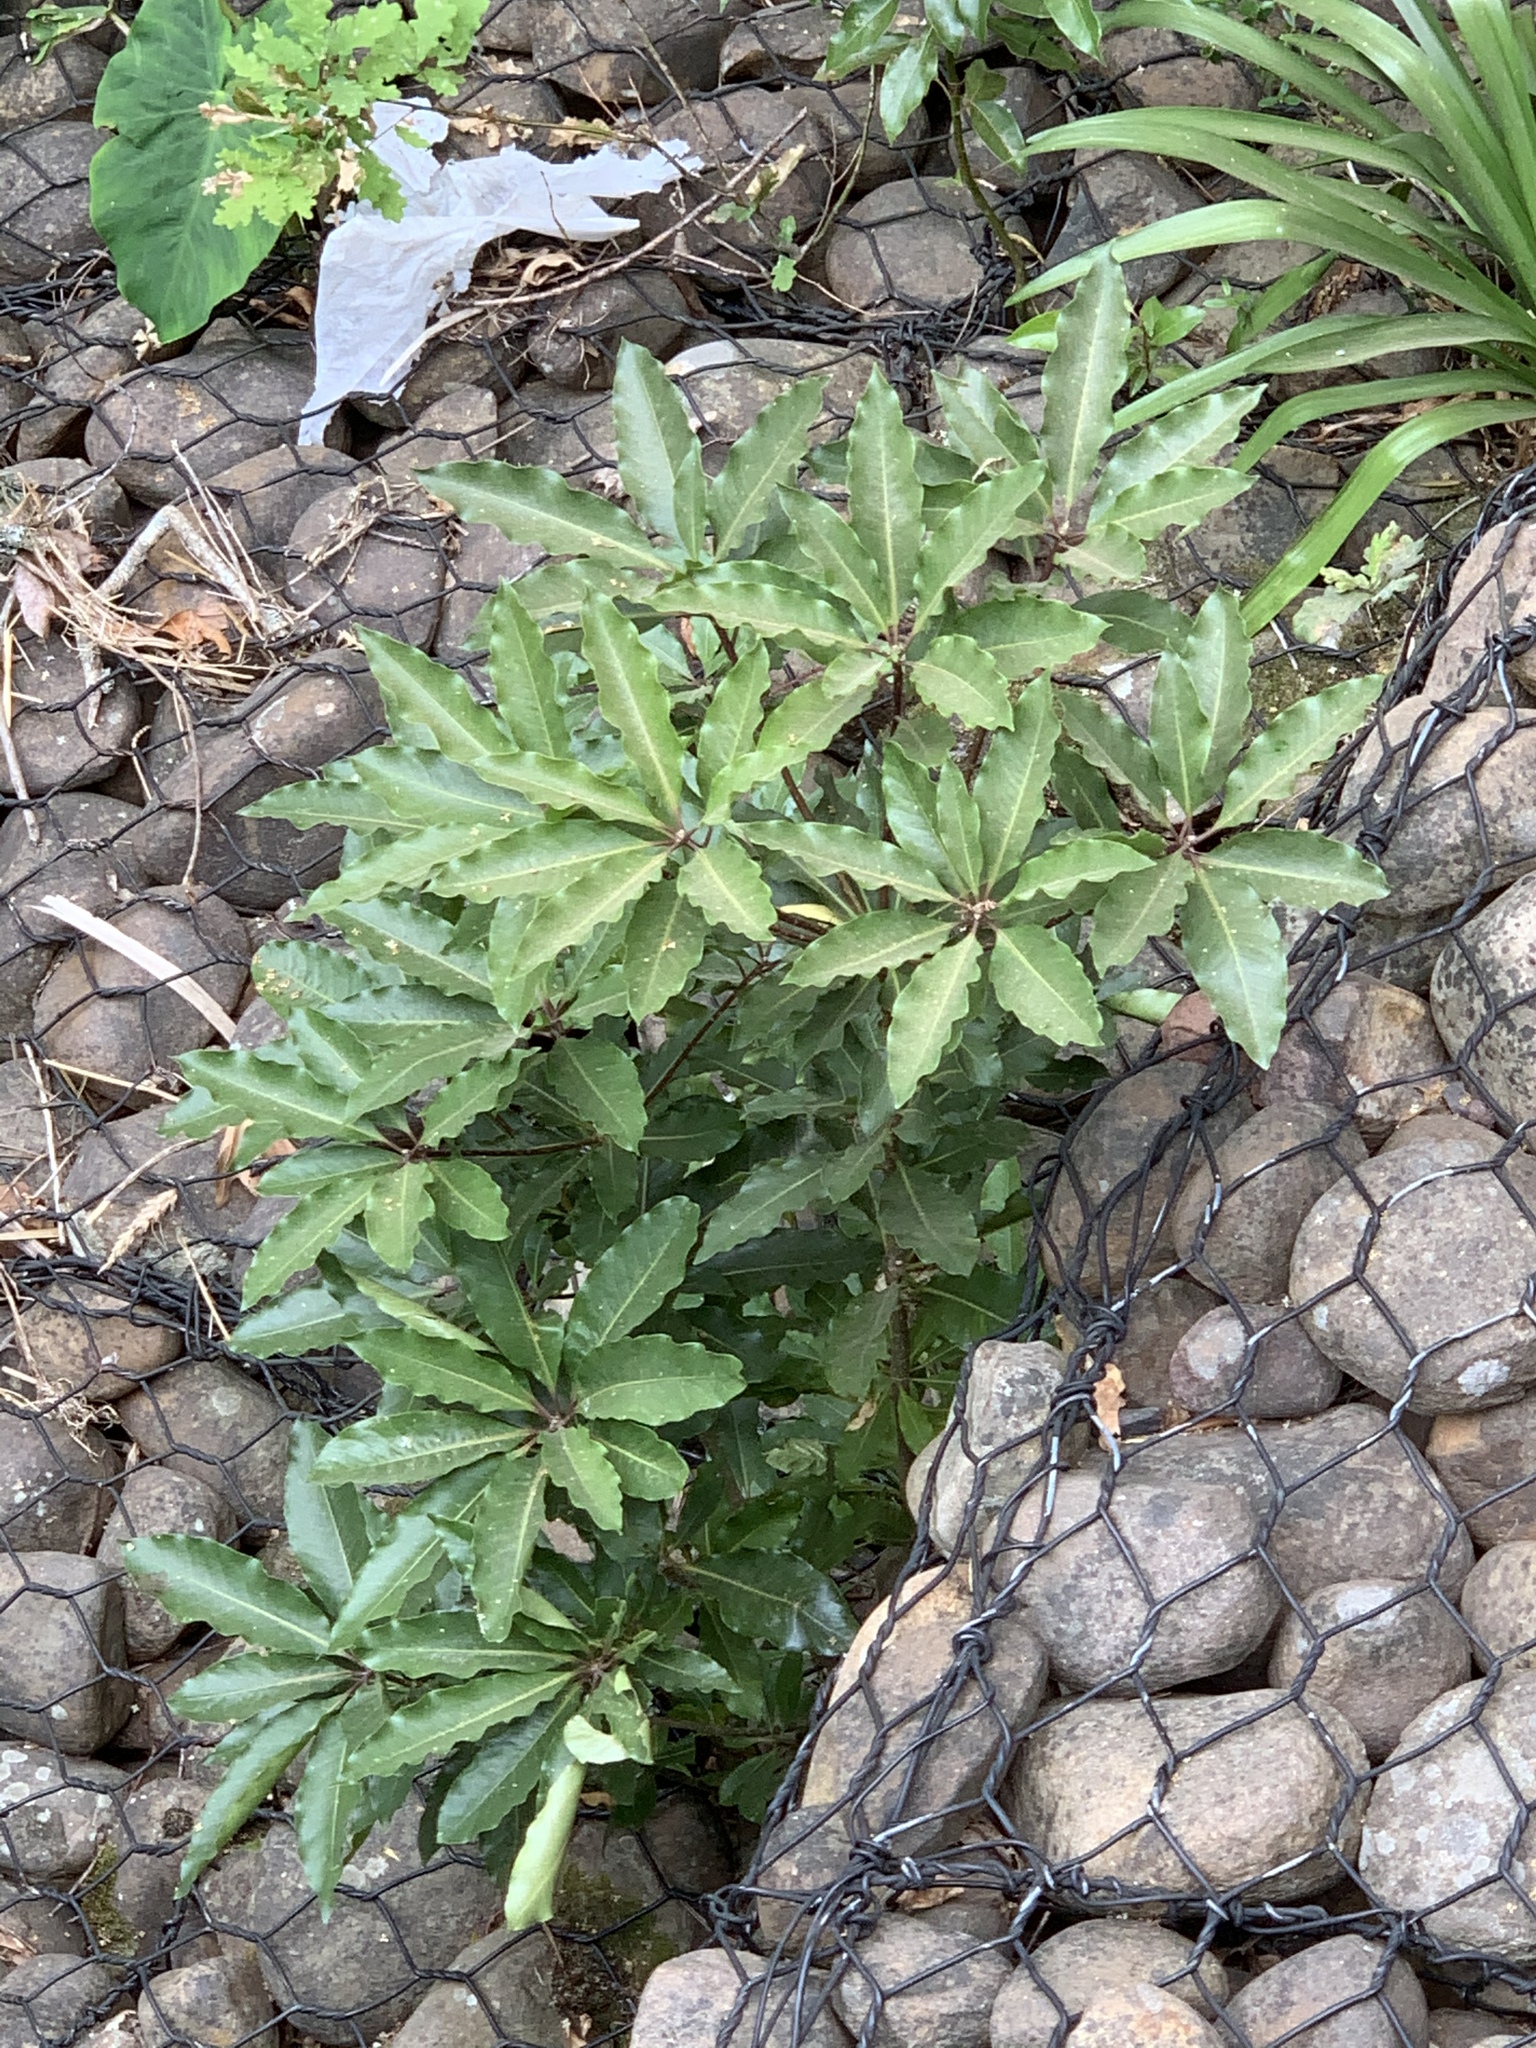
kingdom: Plantae
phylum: Tracheophyta
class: Magnoliopsida
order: Apiales
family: Pittosporaceae
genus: Pittosporum
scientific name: Pittosporum undulatum
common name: Australian cheesewood
